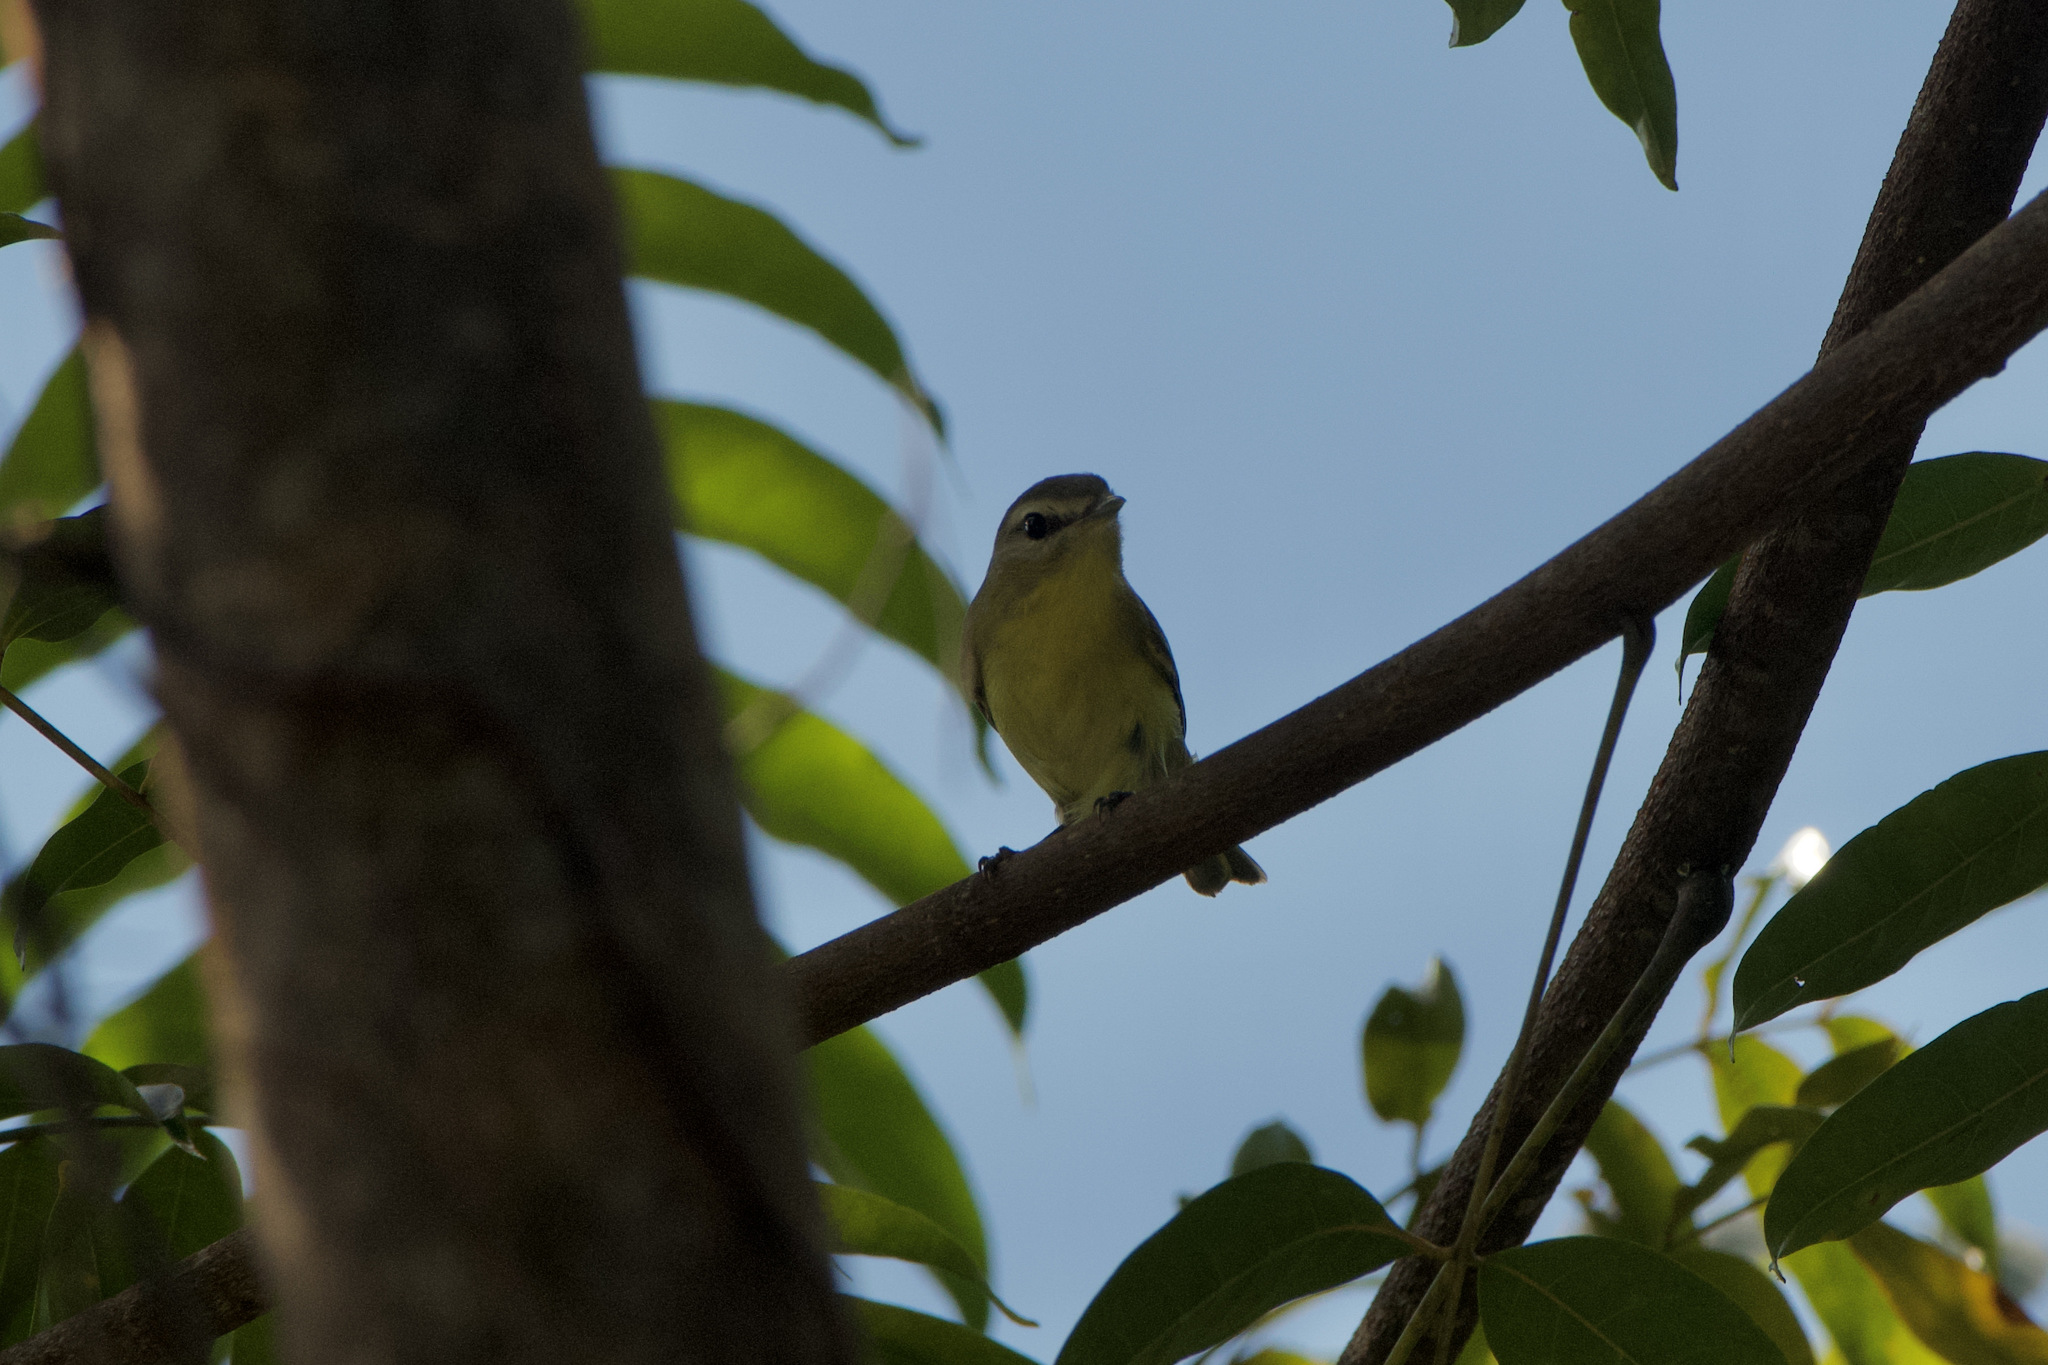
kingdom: Animalia
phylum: Chordata
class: Aves
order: Passeriformes
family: Vireonidae
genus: Vireo
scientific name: Vireo philadelphicus
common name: Philadelphia vireo
